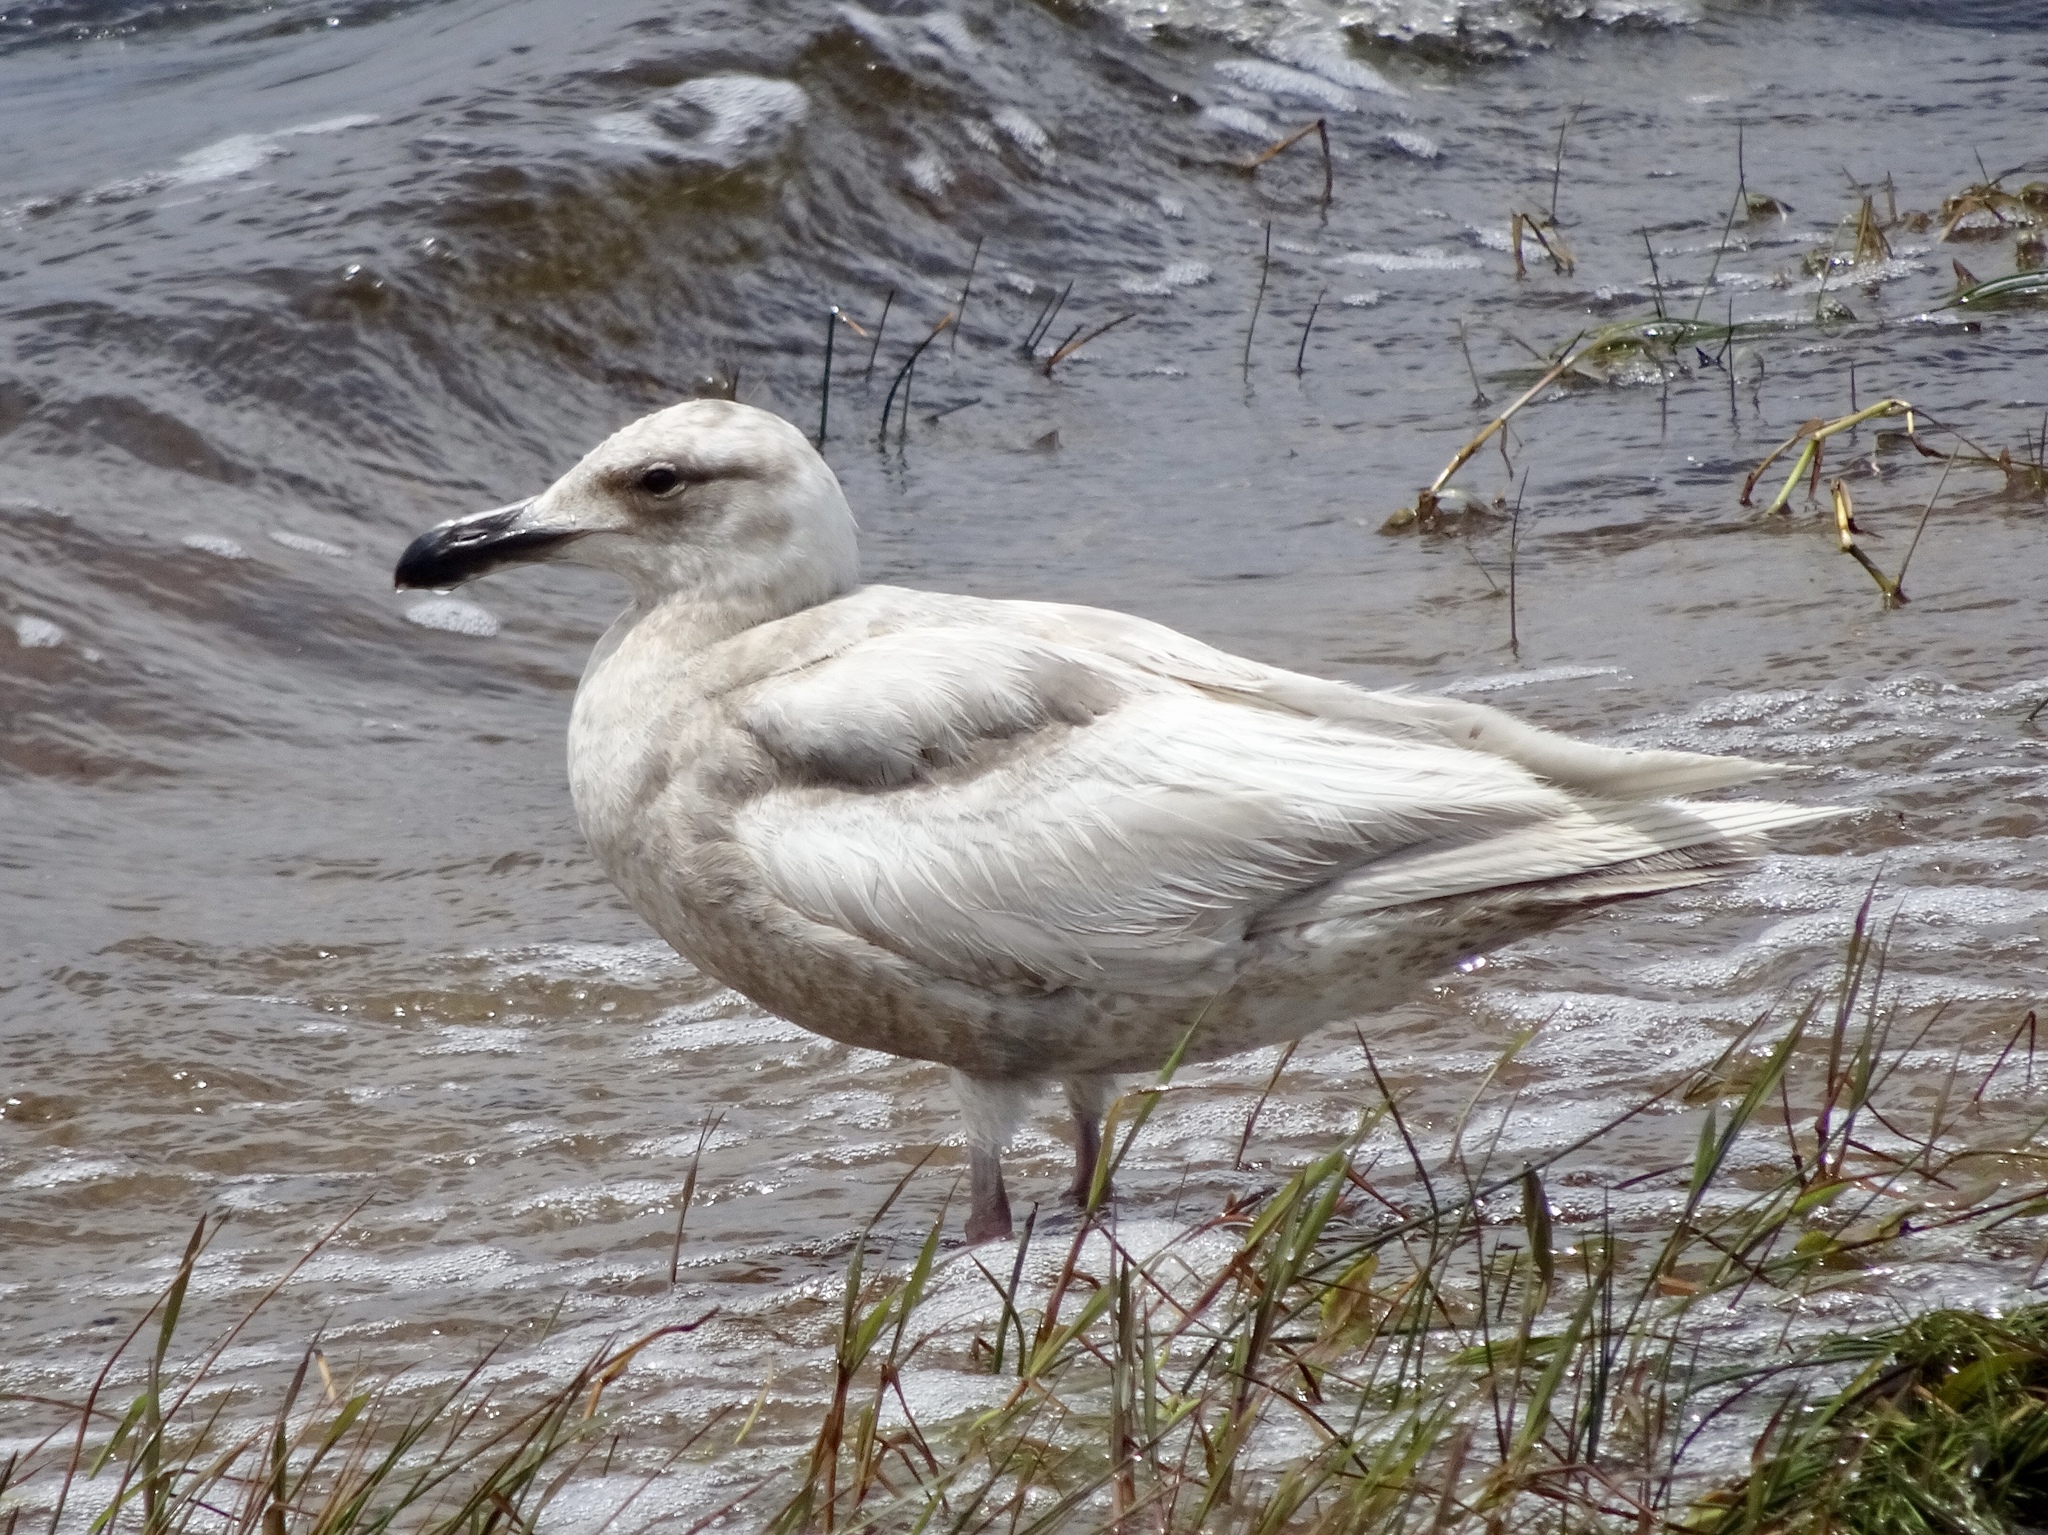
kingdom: Animalia
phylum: Chordata
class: Aves
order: Charadriiformes
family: Laridae
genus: Larus
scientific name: Larus glaucescens
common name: Glaucous-winged gull
